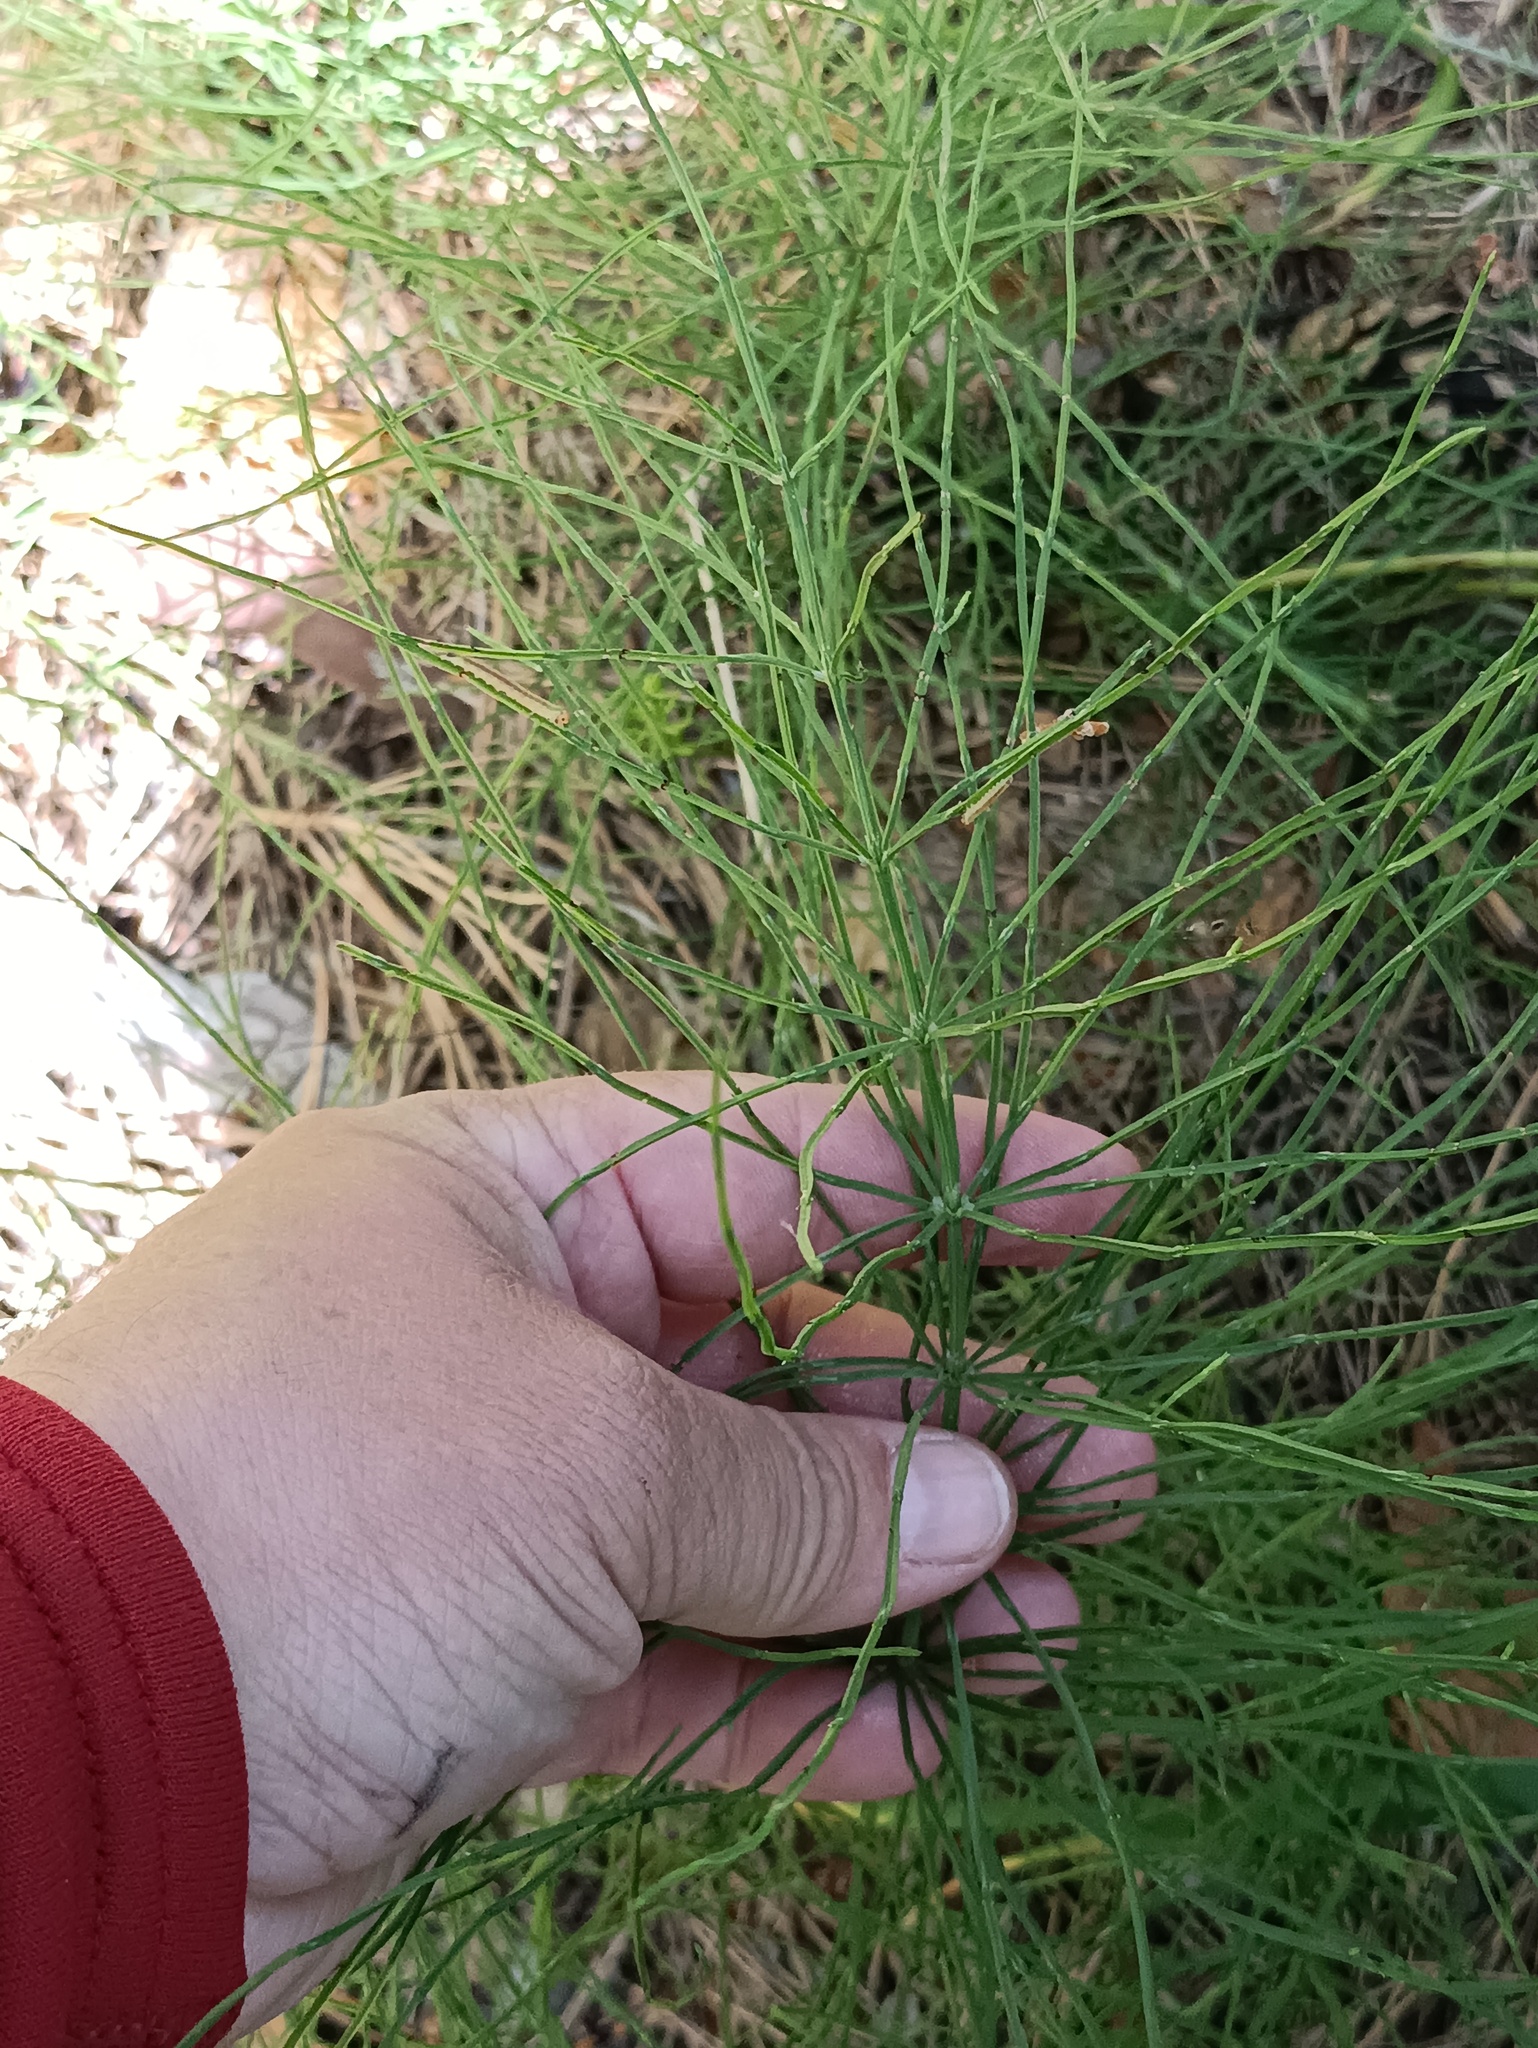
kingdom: Plantae
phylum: Tracheophyta
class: Polypodiopsida
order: Equisetales
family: Equisetaceae
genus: Equisetum
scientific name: Equisetum arvense
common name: Field horsetail
